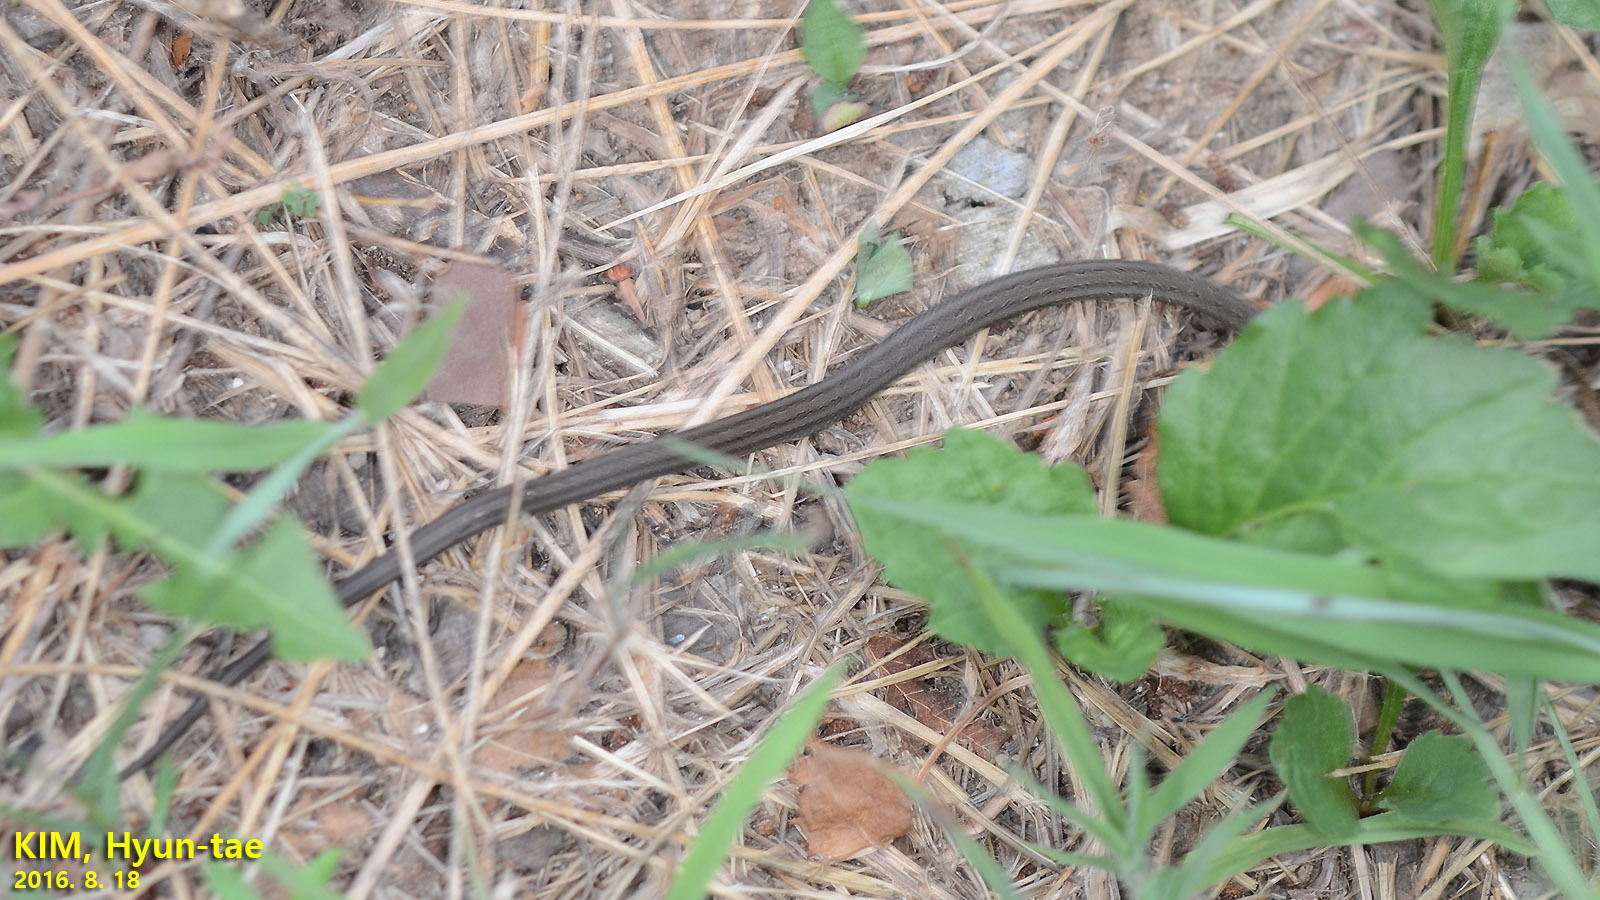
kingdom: Animalia
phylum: Chordata
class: Squamata
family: Colubridae
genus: Oocatochus
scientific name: Oocatochus rufodorsatus
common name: Frog-eating rat snake
